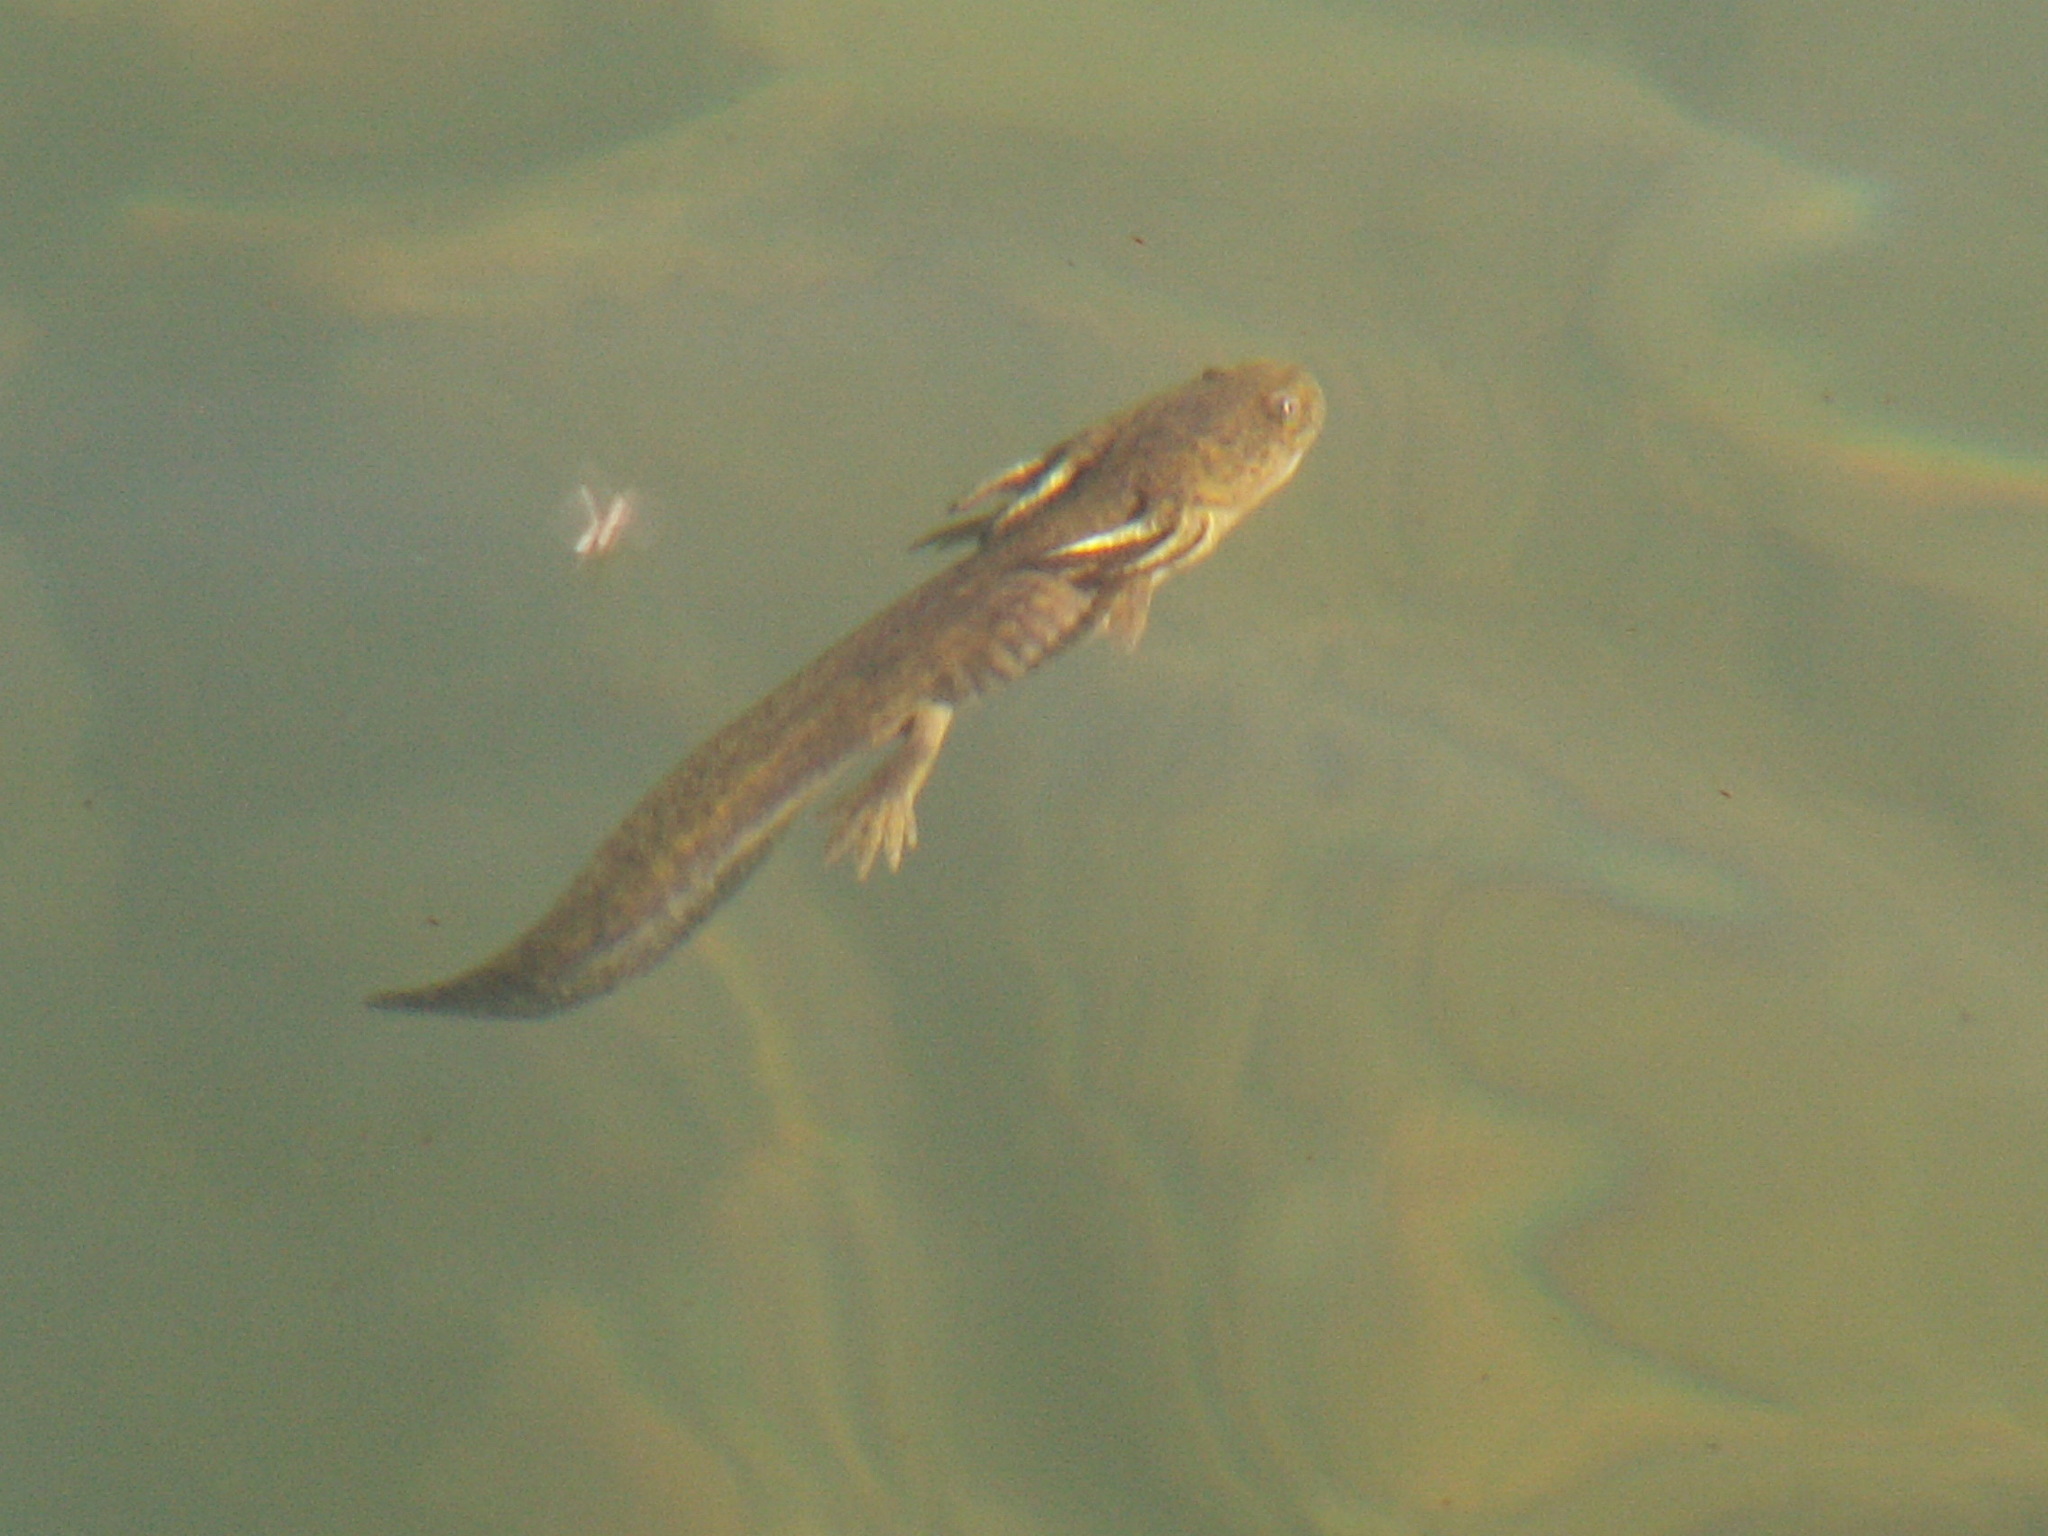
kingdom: Animalia
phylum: Chordata
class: Amphibia
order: Caudata
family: Ambystomatidae
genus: Ambystoma
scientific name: Ambystoma mavortium
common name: Western tiger salamander
